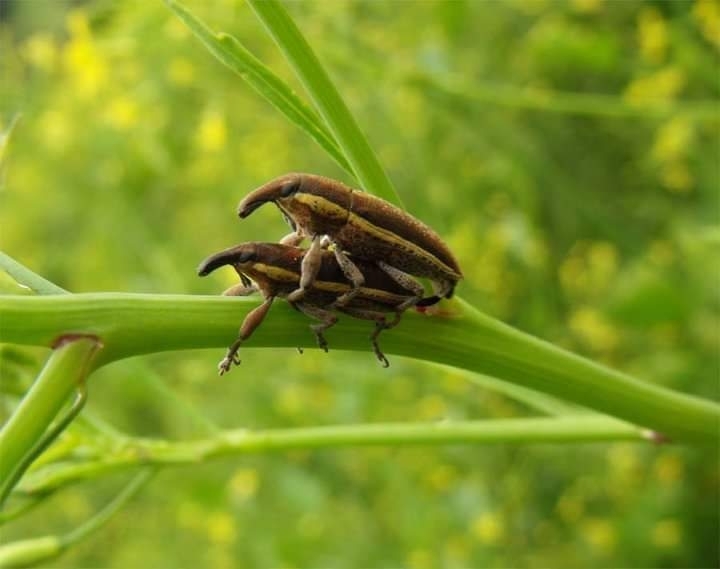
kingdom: Animalia
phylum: Arthropoda
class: Insecta
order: Coleoptera
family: Curculionidae
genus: Lixus
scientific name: Lixus ochraceus
